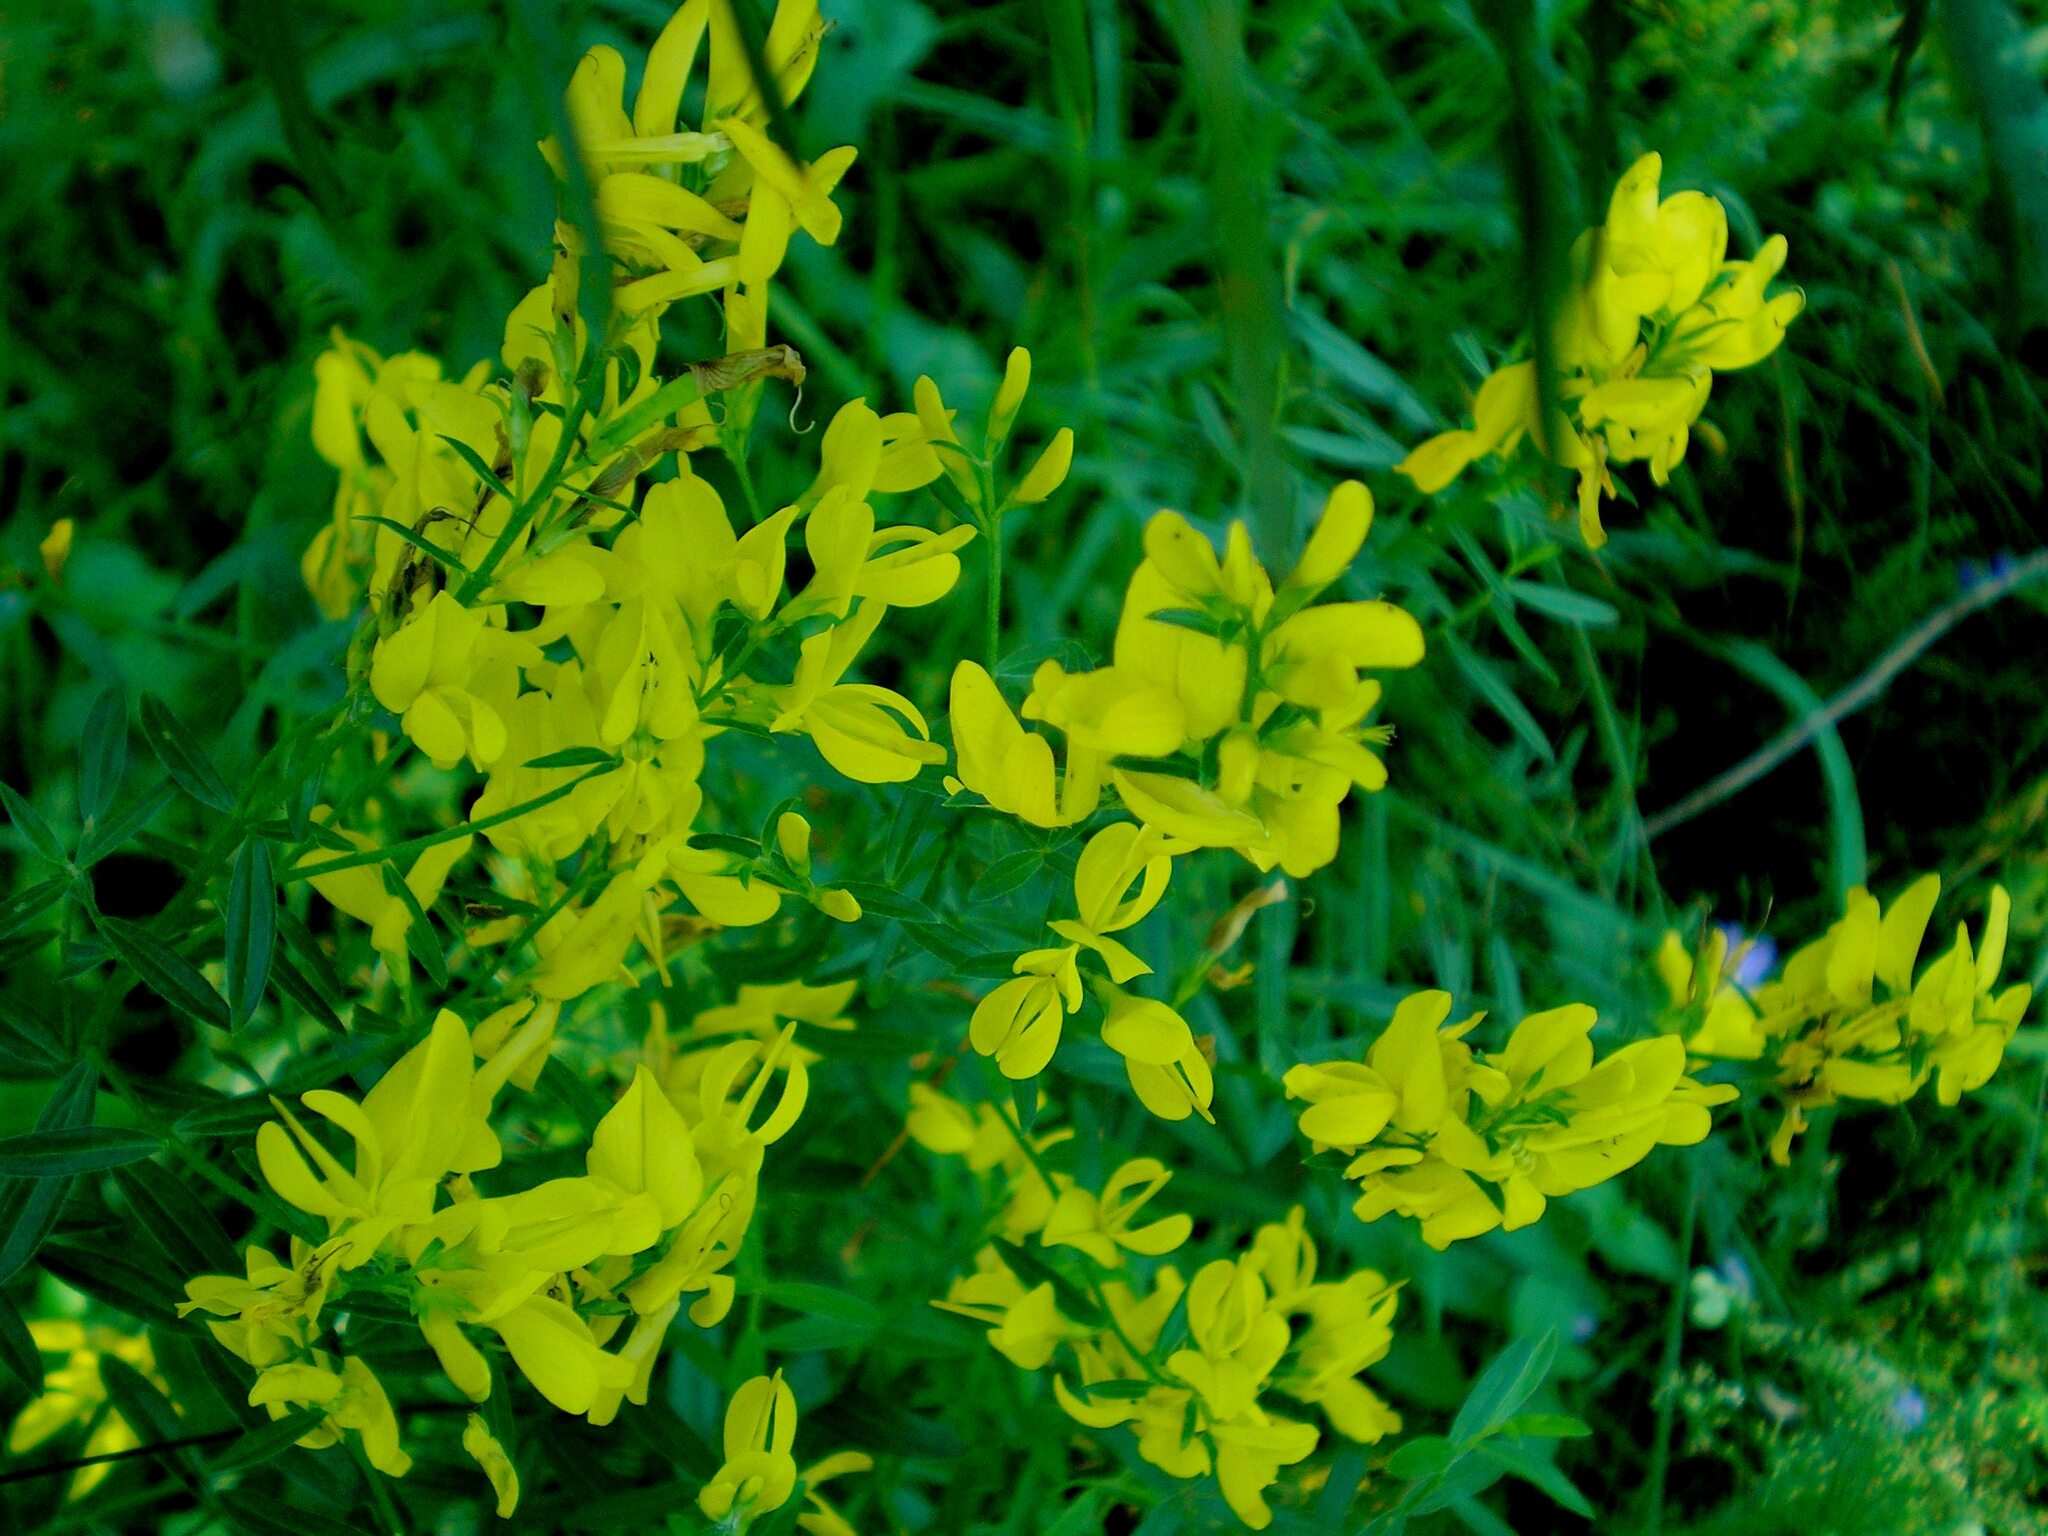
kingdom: Plantae
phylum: Tracheophyta
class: Magnoliopsida
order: Fabales
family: Fabaceae
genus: Genista
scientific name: Genista tinctoria
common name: Dyer's greenweed
